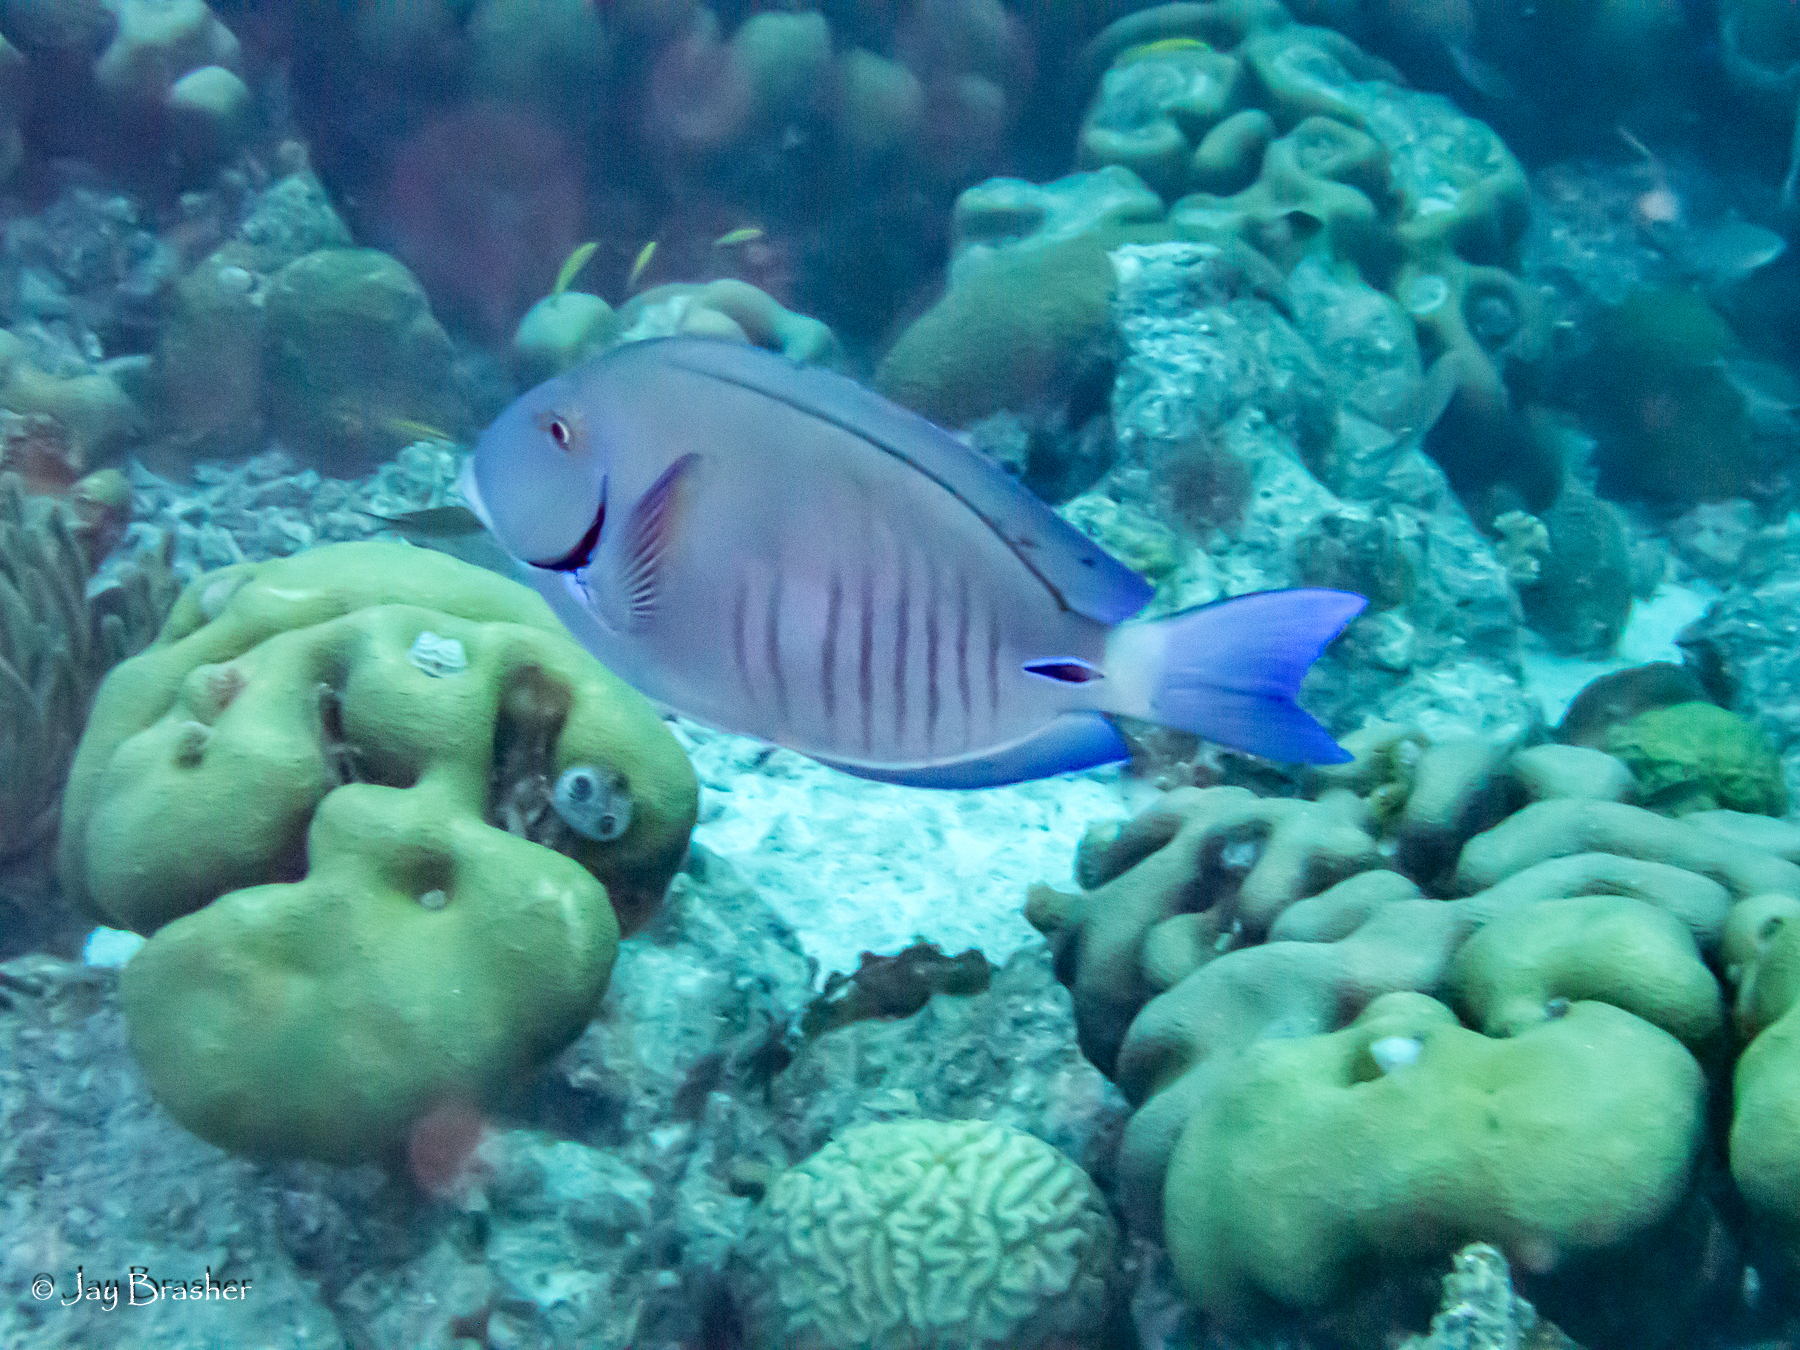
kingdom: Animalia
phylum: Chordata
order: Perciformes
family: Acanthuridae
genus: Acanthurus
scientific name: Acanthurus chirurgus
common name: Doctorfish
